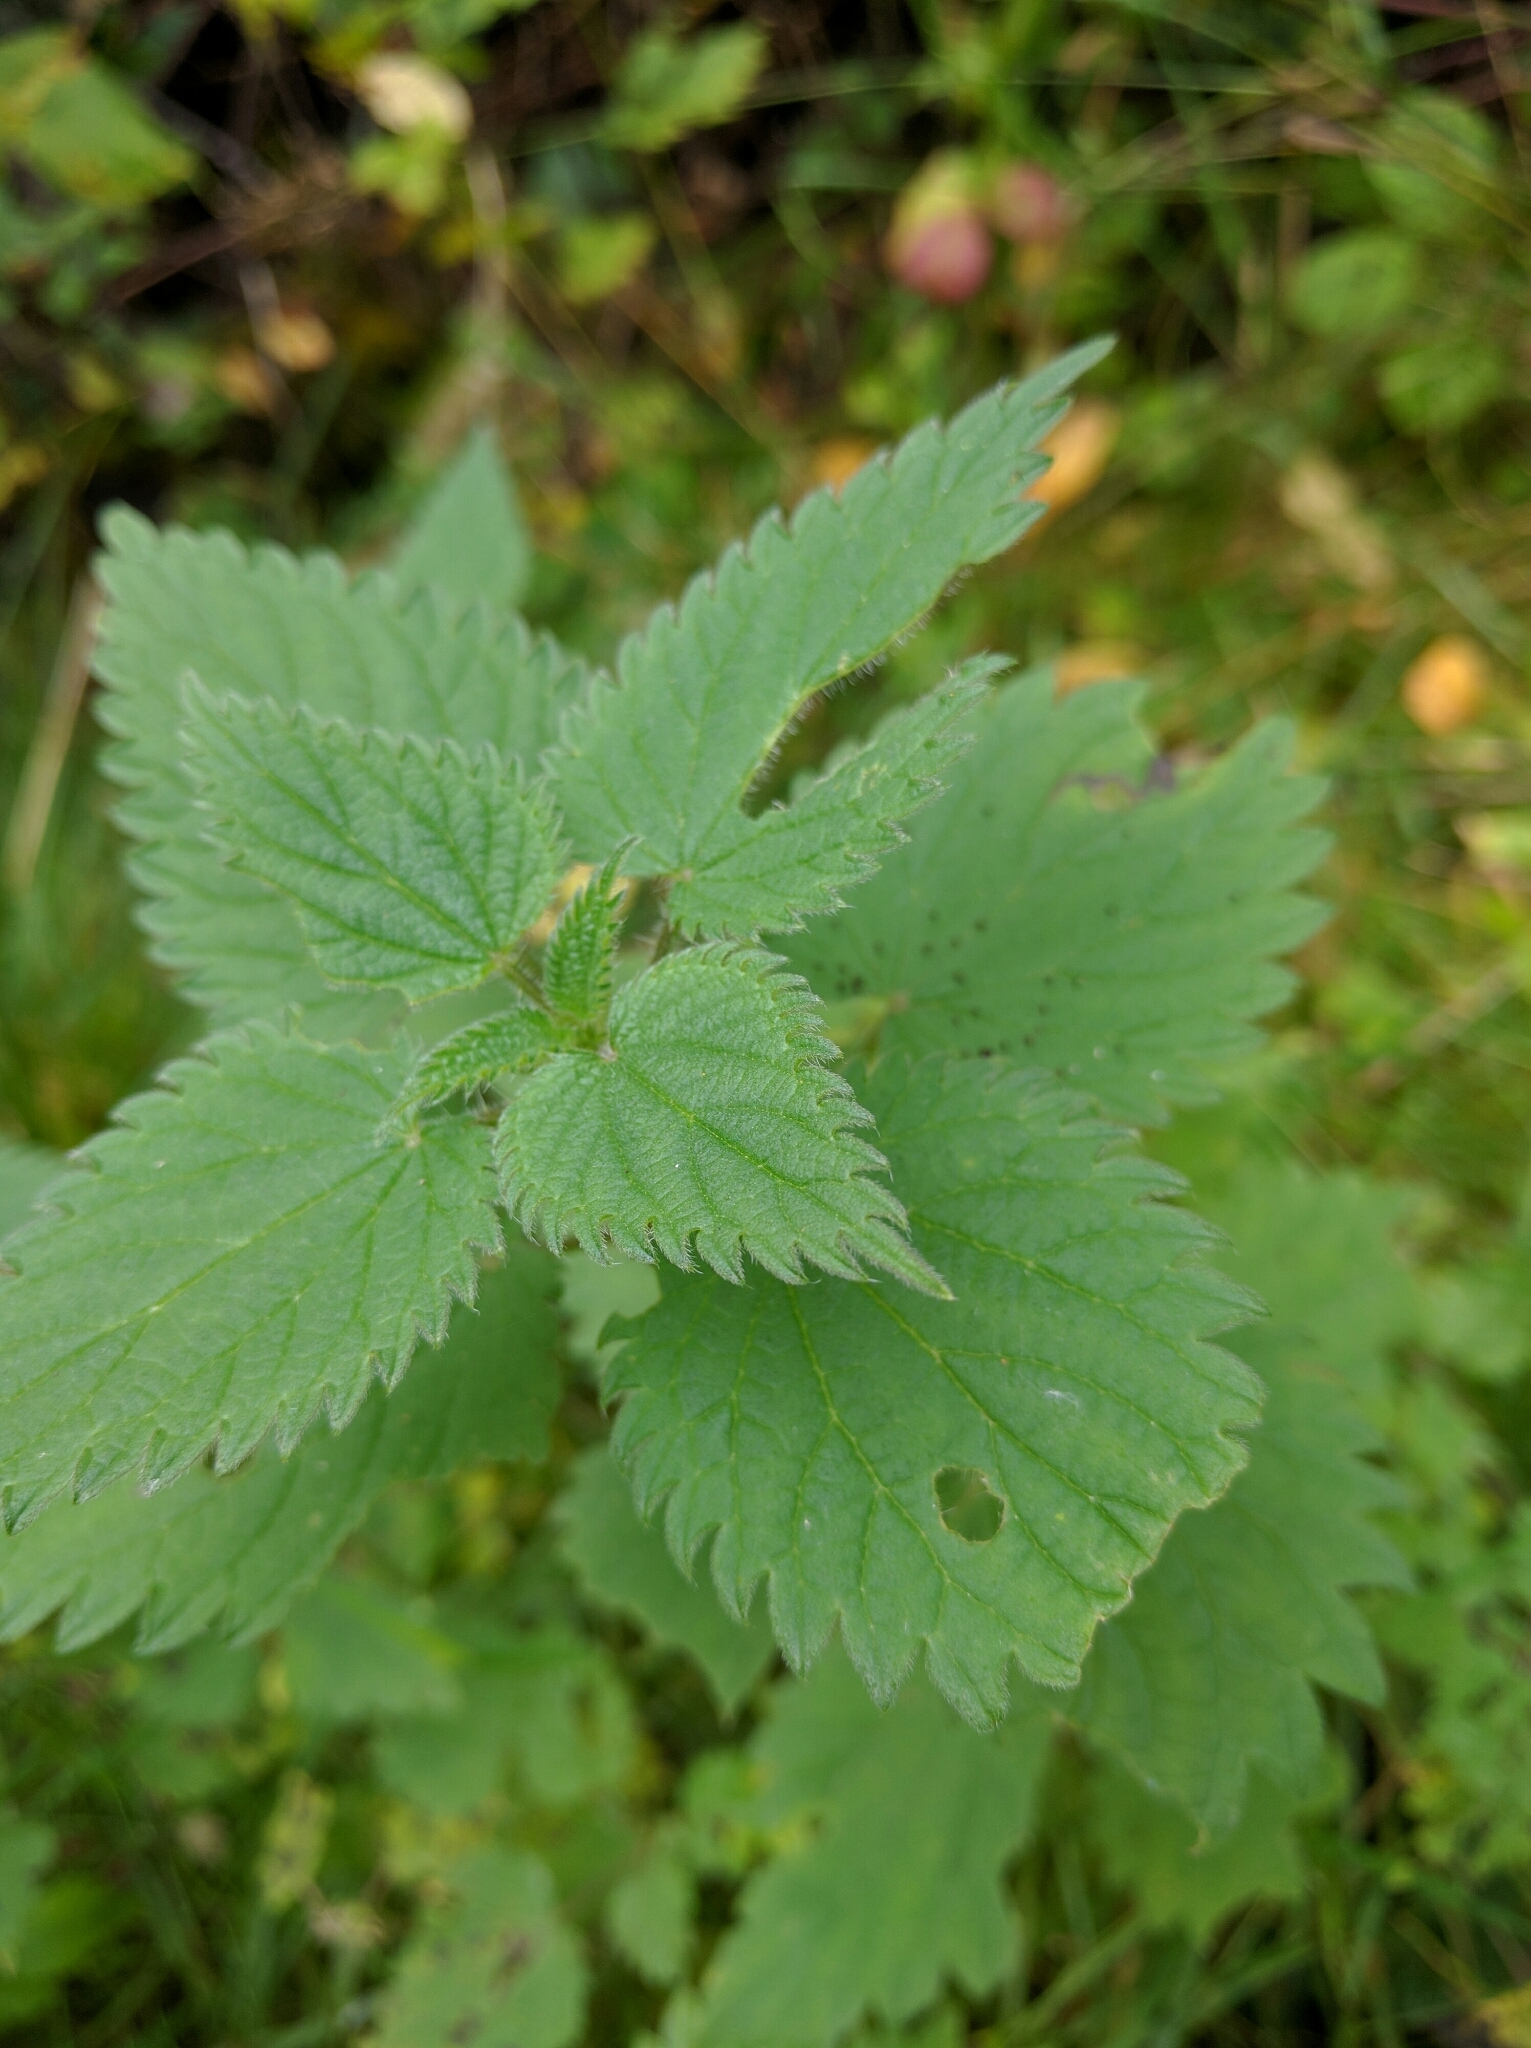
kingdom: Plantae
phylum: Tracheophyta
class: Magnoliopsida
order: Rosales
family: Urticaceae
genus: Urtica
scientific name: Urtica dioica
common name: Common nettle
